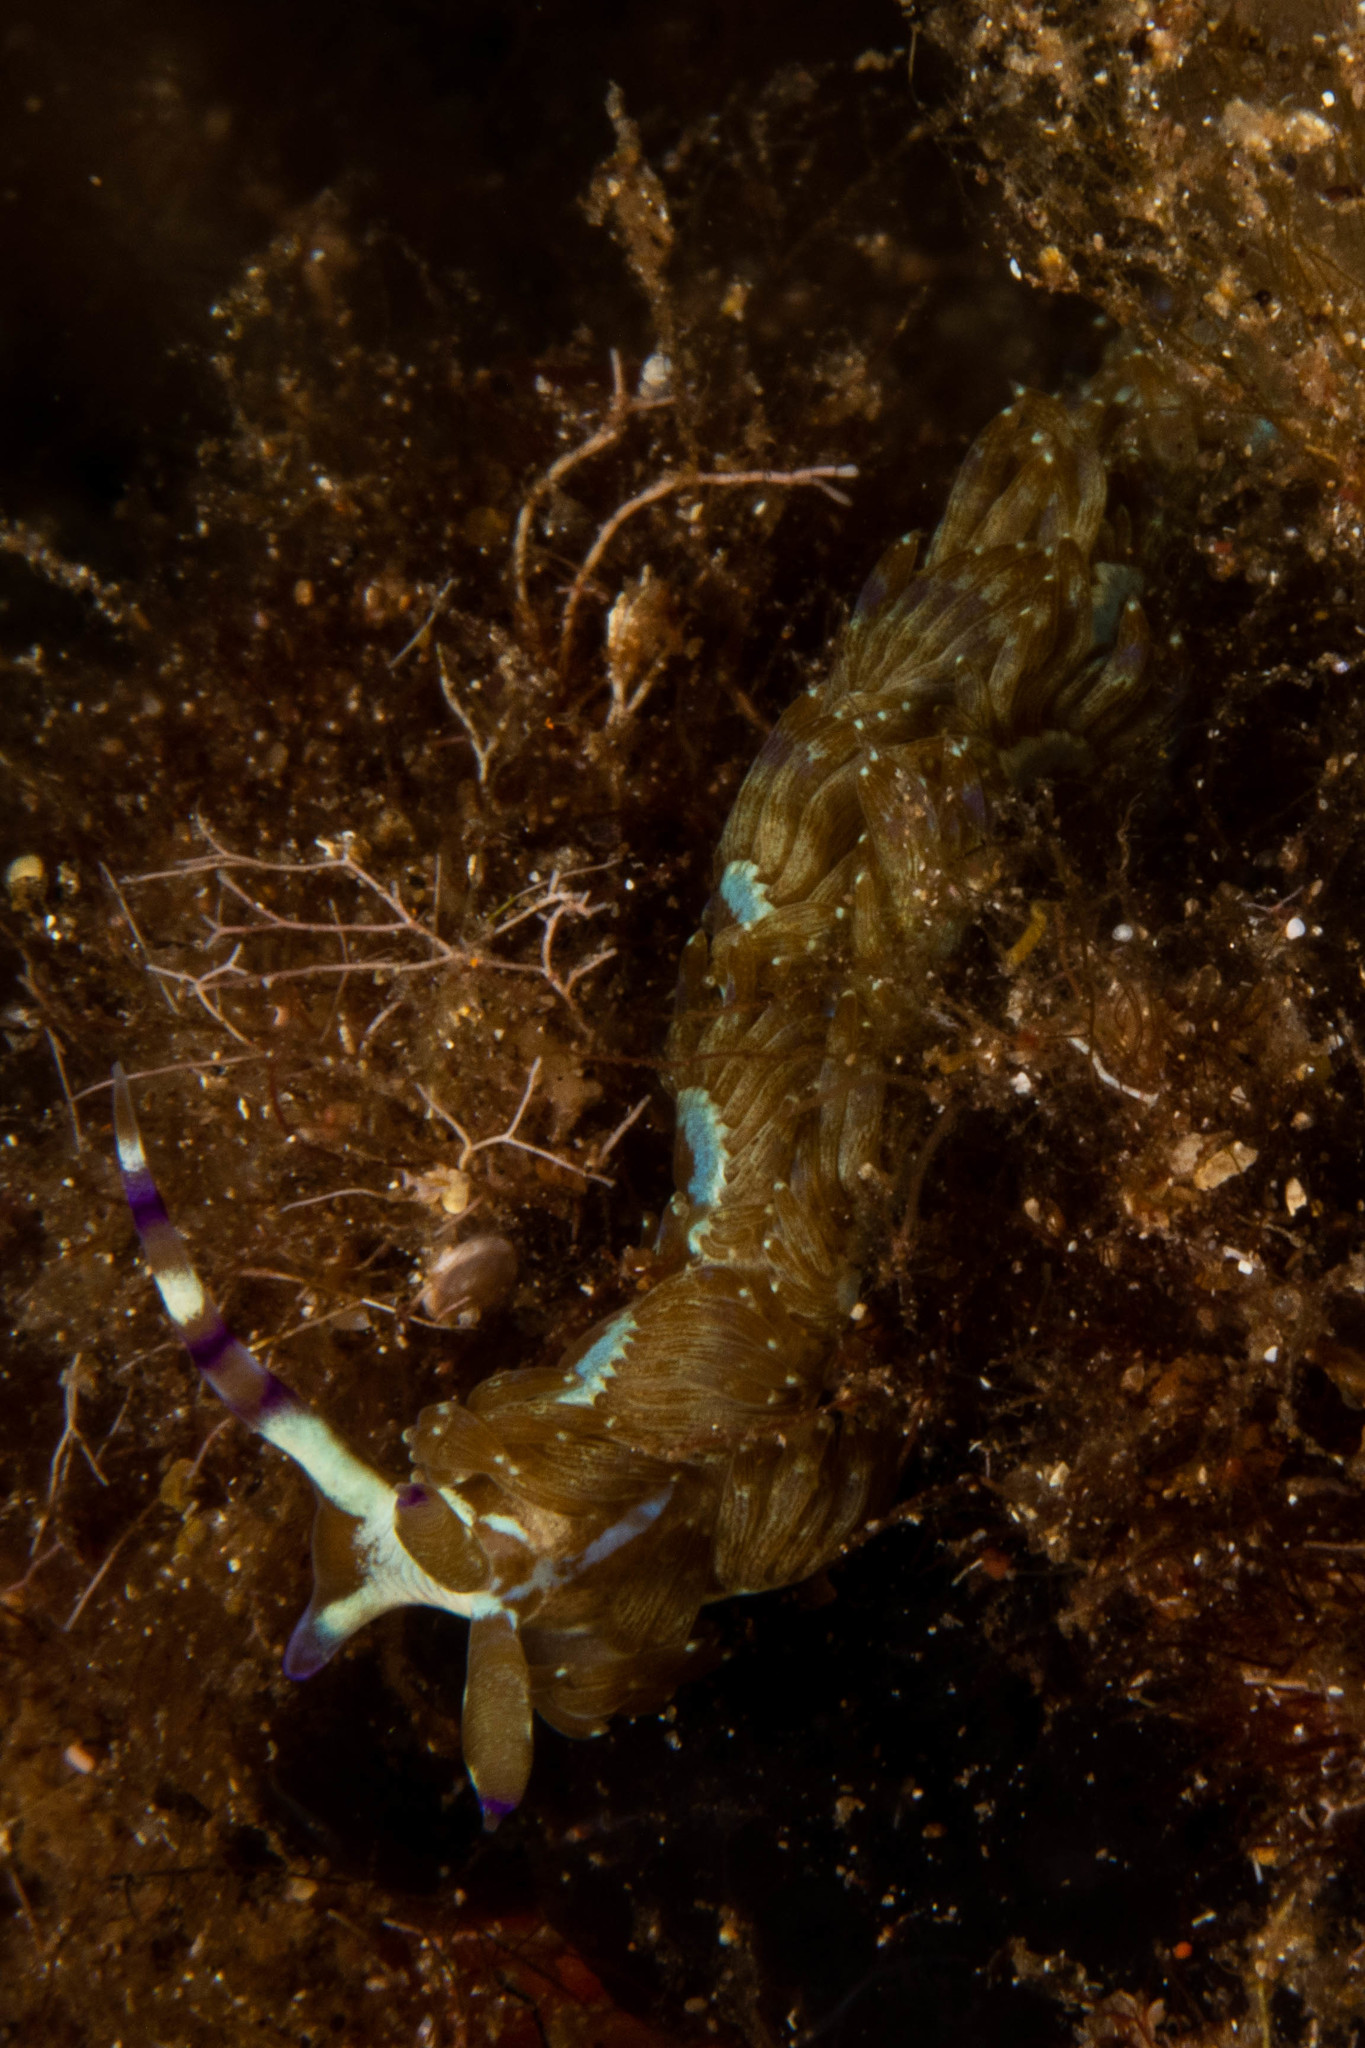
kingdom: Animalia
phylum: Mollusca
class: Gastropoda
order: Nudibranchia
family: Facelinidae
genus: Pteraeolidia
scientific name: Pteraeolidia semperi
